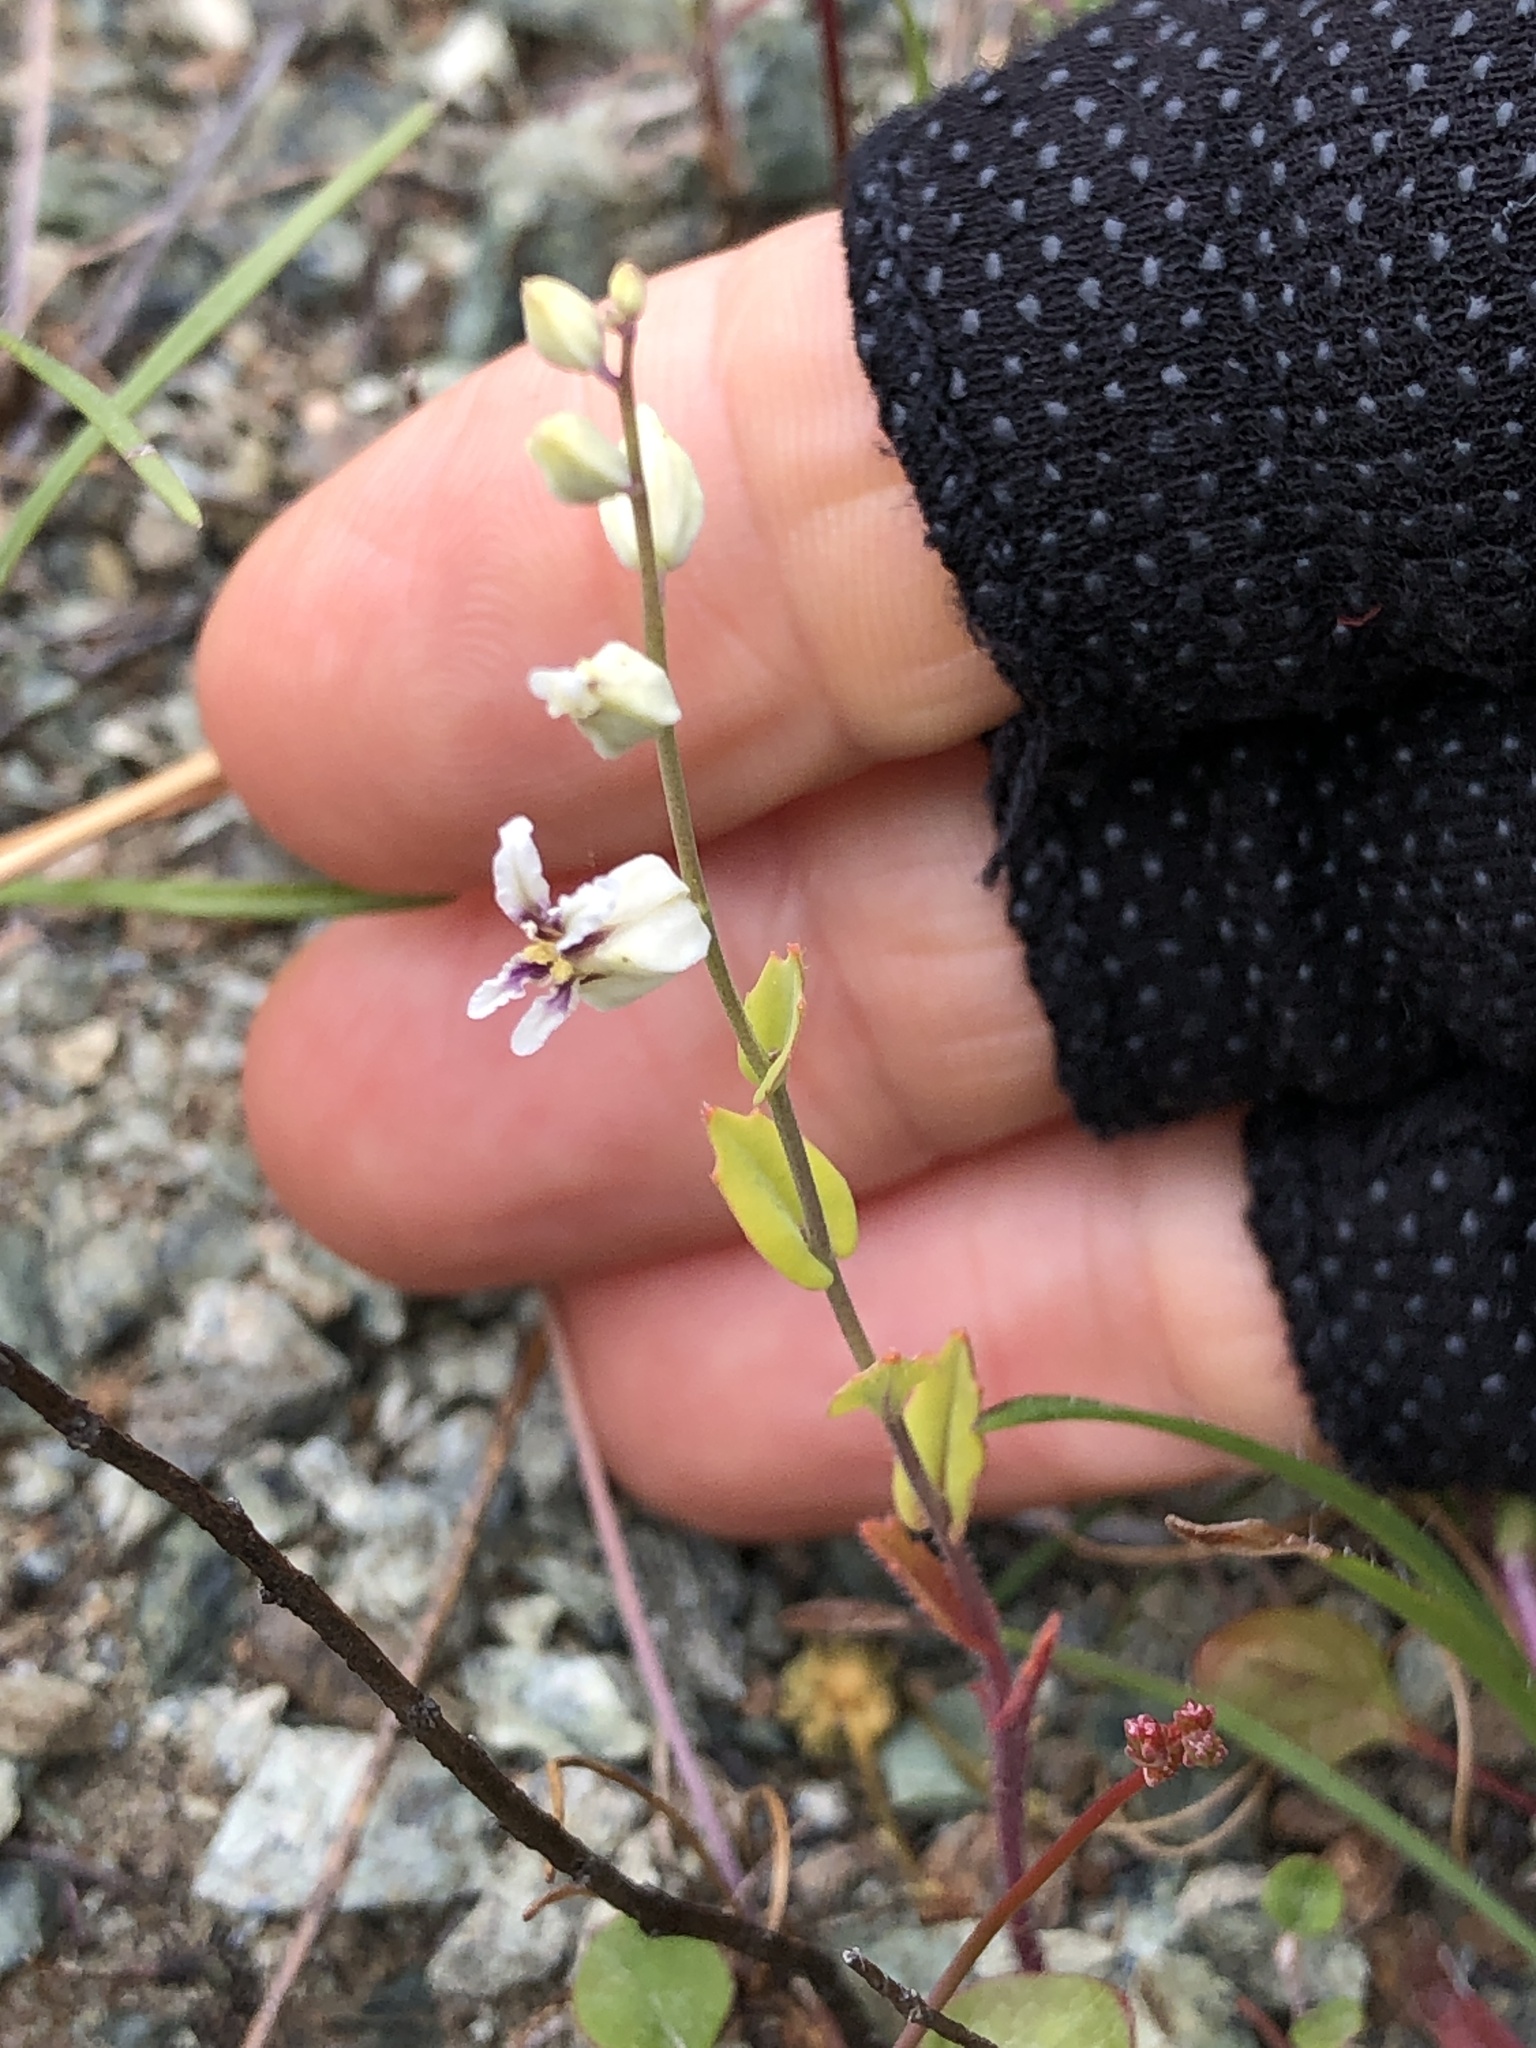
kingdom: Plantae
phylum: Tracheophyta
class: Magnoliopsida
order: Brassicales
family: Brassicaceae
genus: Streptanthus
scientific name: Streptanthus glandulosus
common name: Jewel-flower
